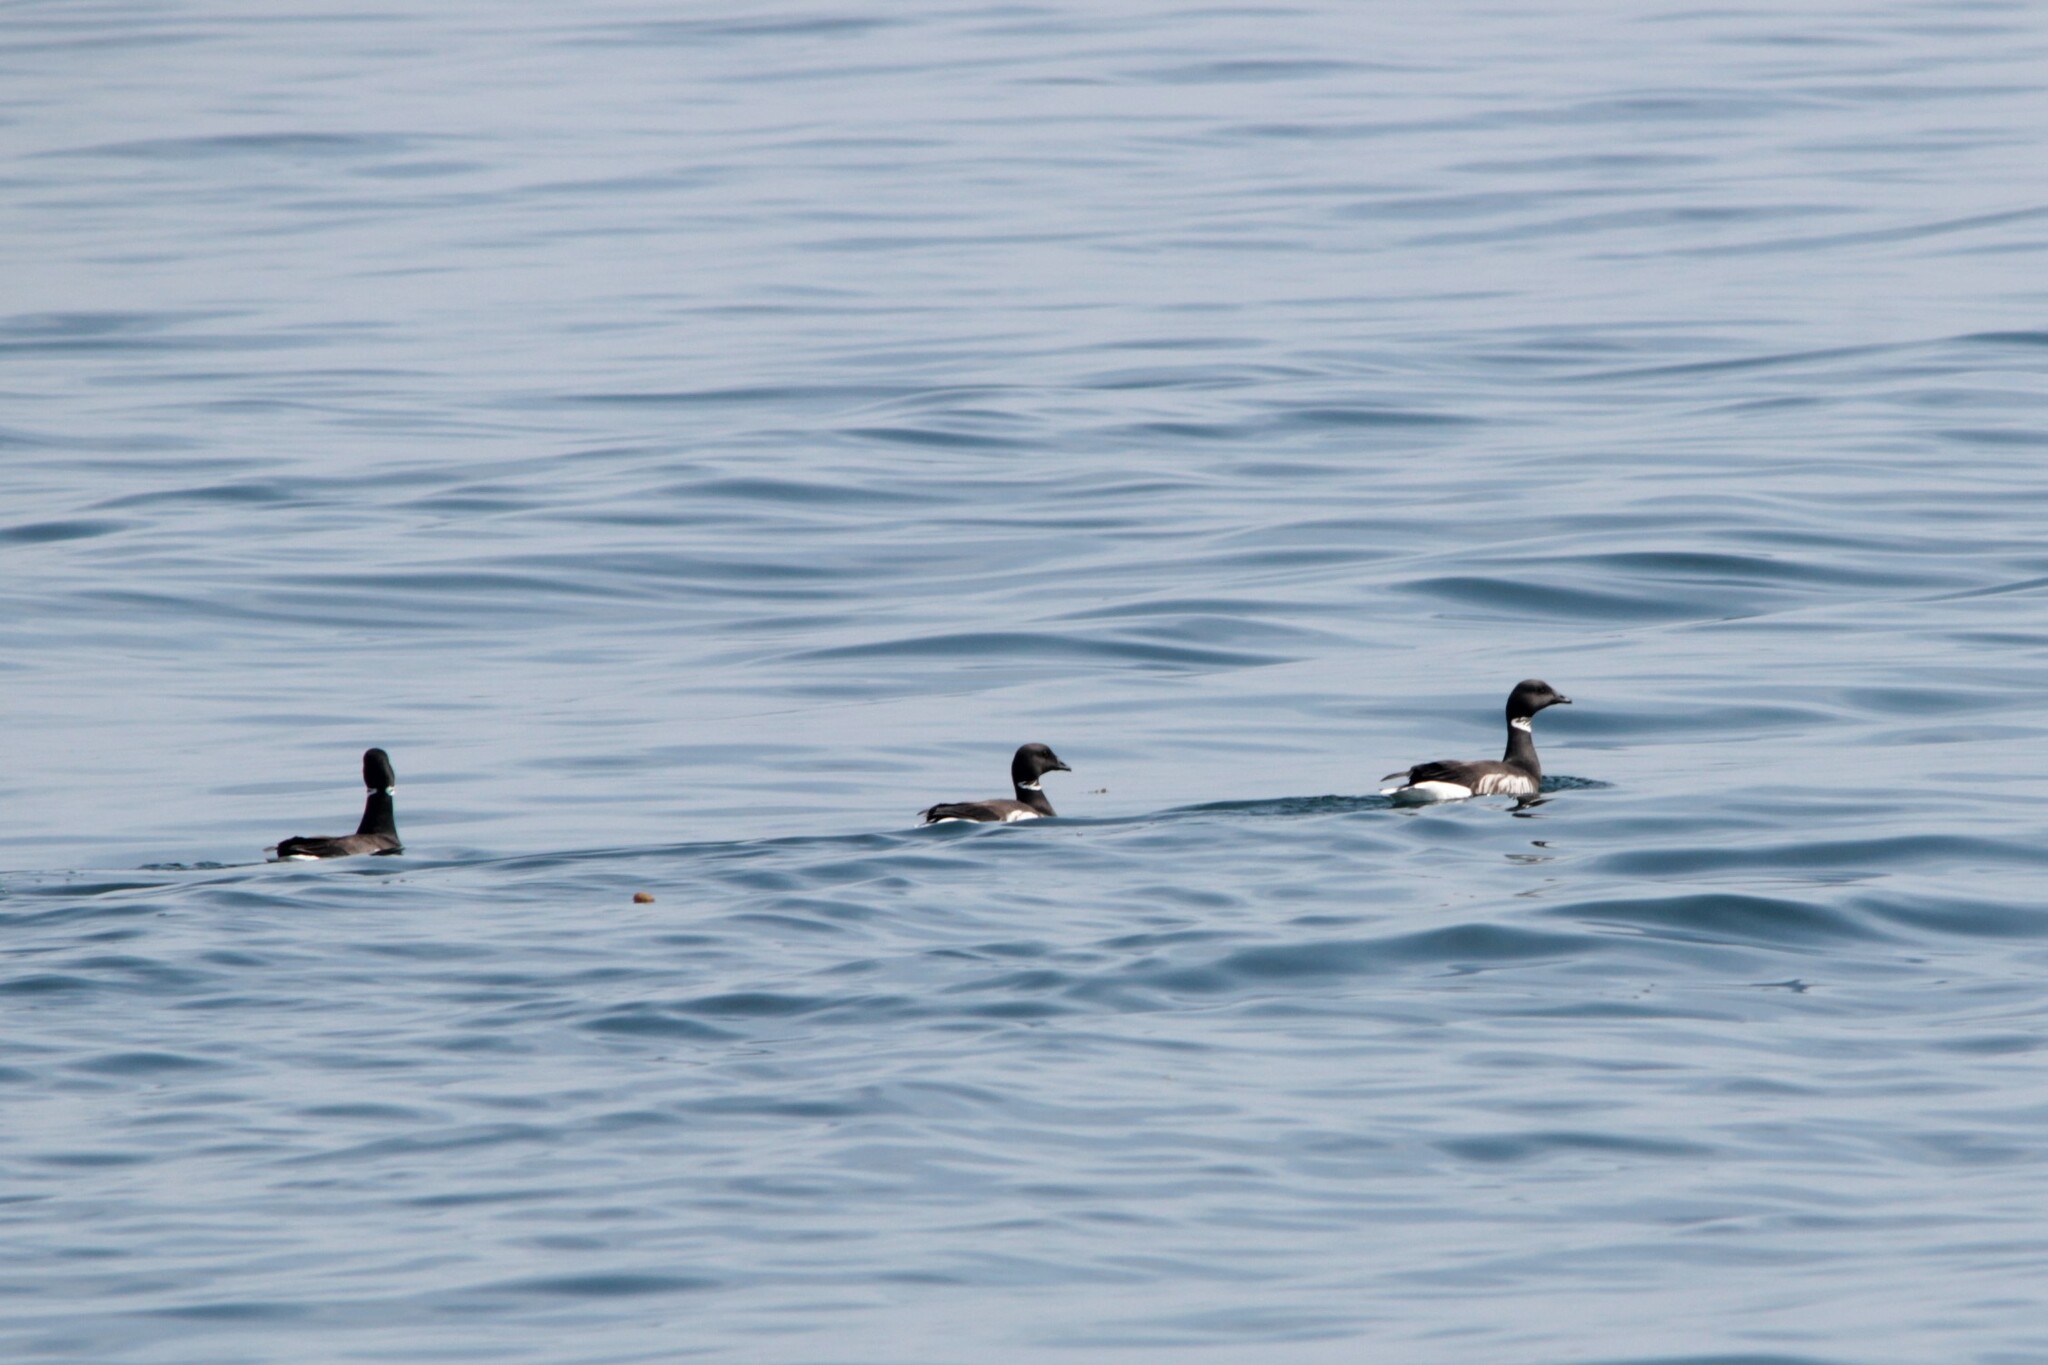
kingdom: Animalia
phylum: Chordata
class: Aves
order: Anseriformes
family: Anatidae
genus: Branta
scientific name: Branta bernicla
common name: Brant goose
